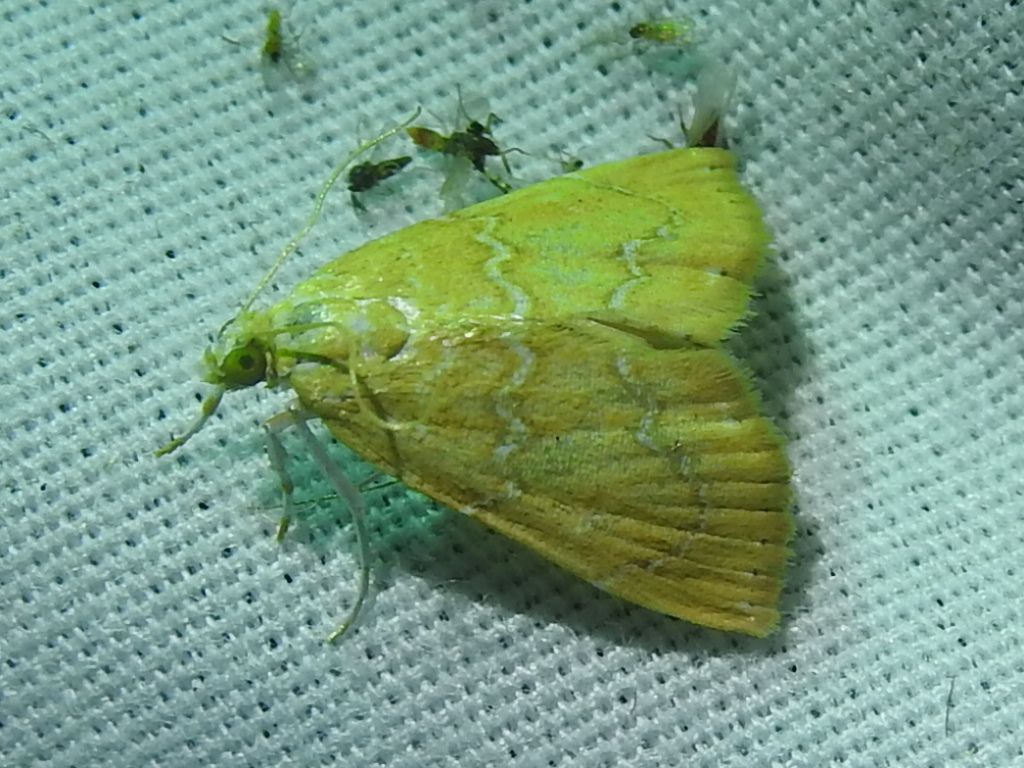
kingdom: Animalia
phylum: Arthropoda
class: Insecta
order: Lepidoptera
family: Crambidae
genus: Glaphyria
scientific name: Glaphyria sesquistrialis
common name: White-roped glaphyria
